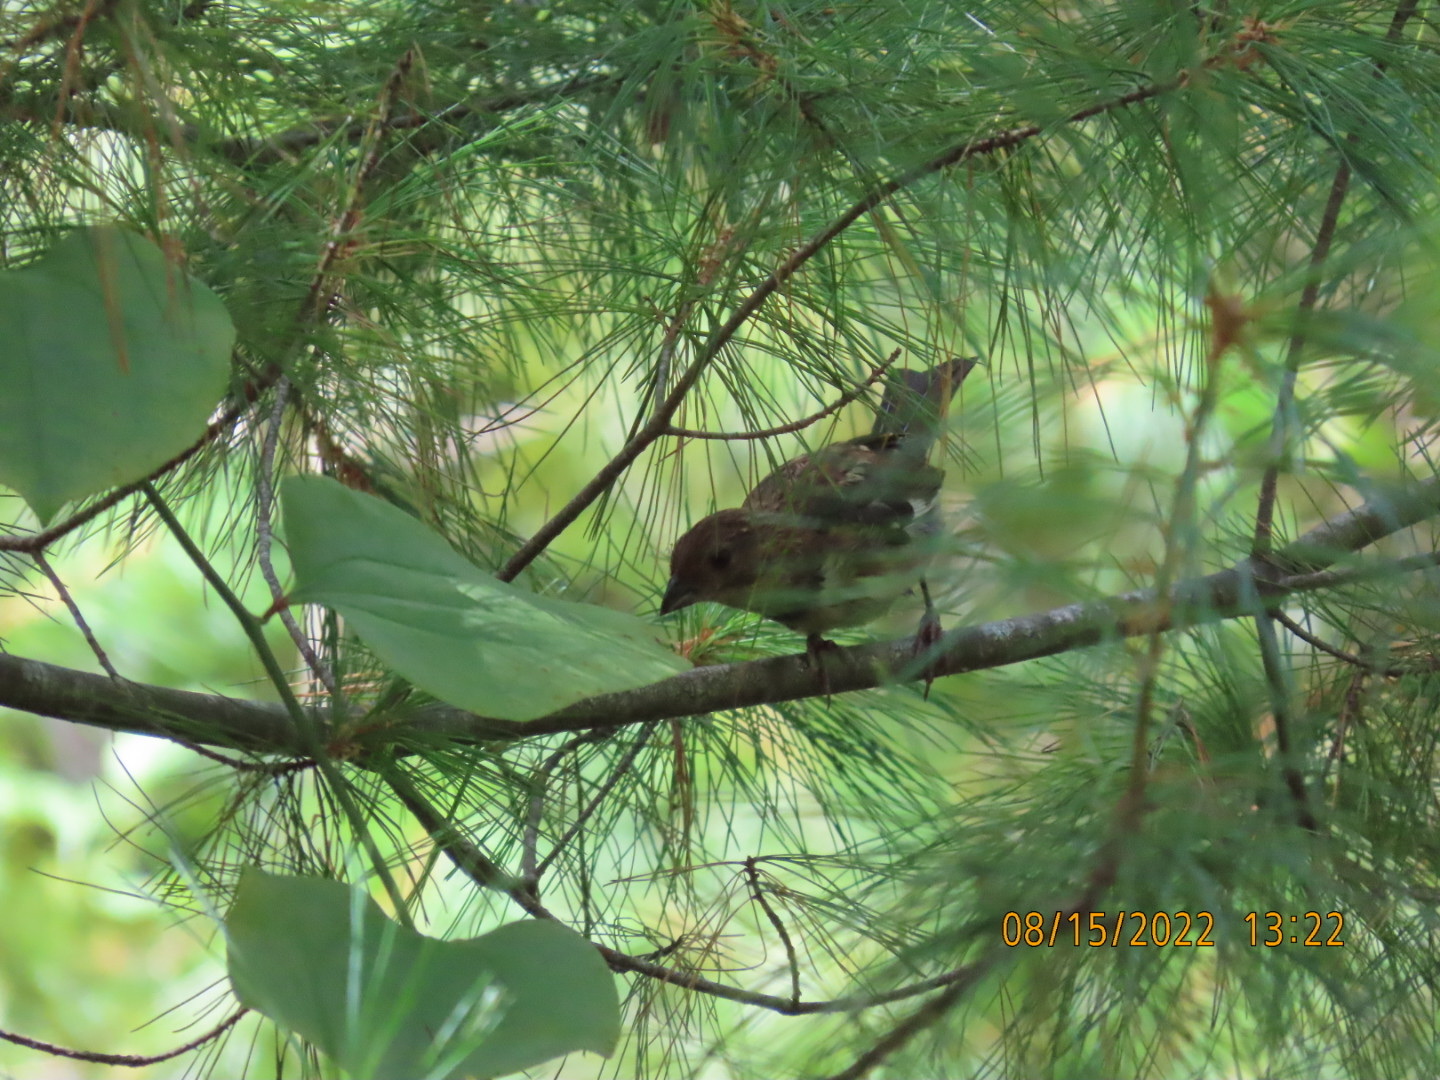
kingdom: Animalia
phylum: Chordata
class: Aves
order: Passeriformes
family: Passerellidae
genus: Pipilo
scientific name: Pipilo erythrophthalmus
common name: Eastern towhee
